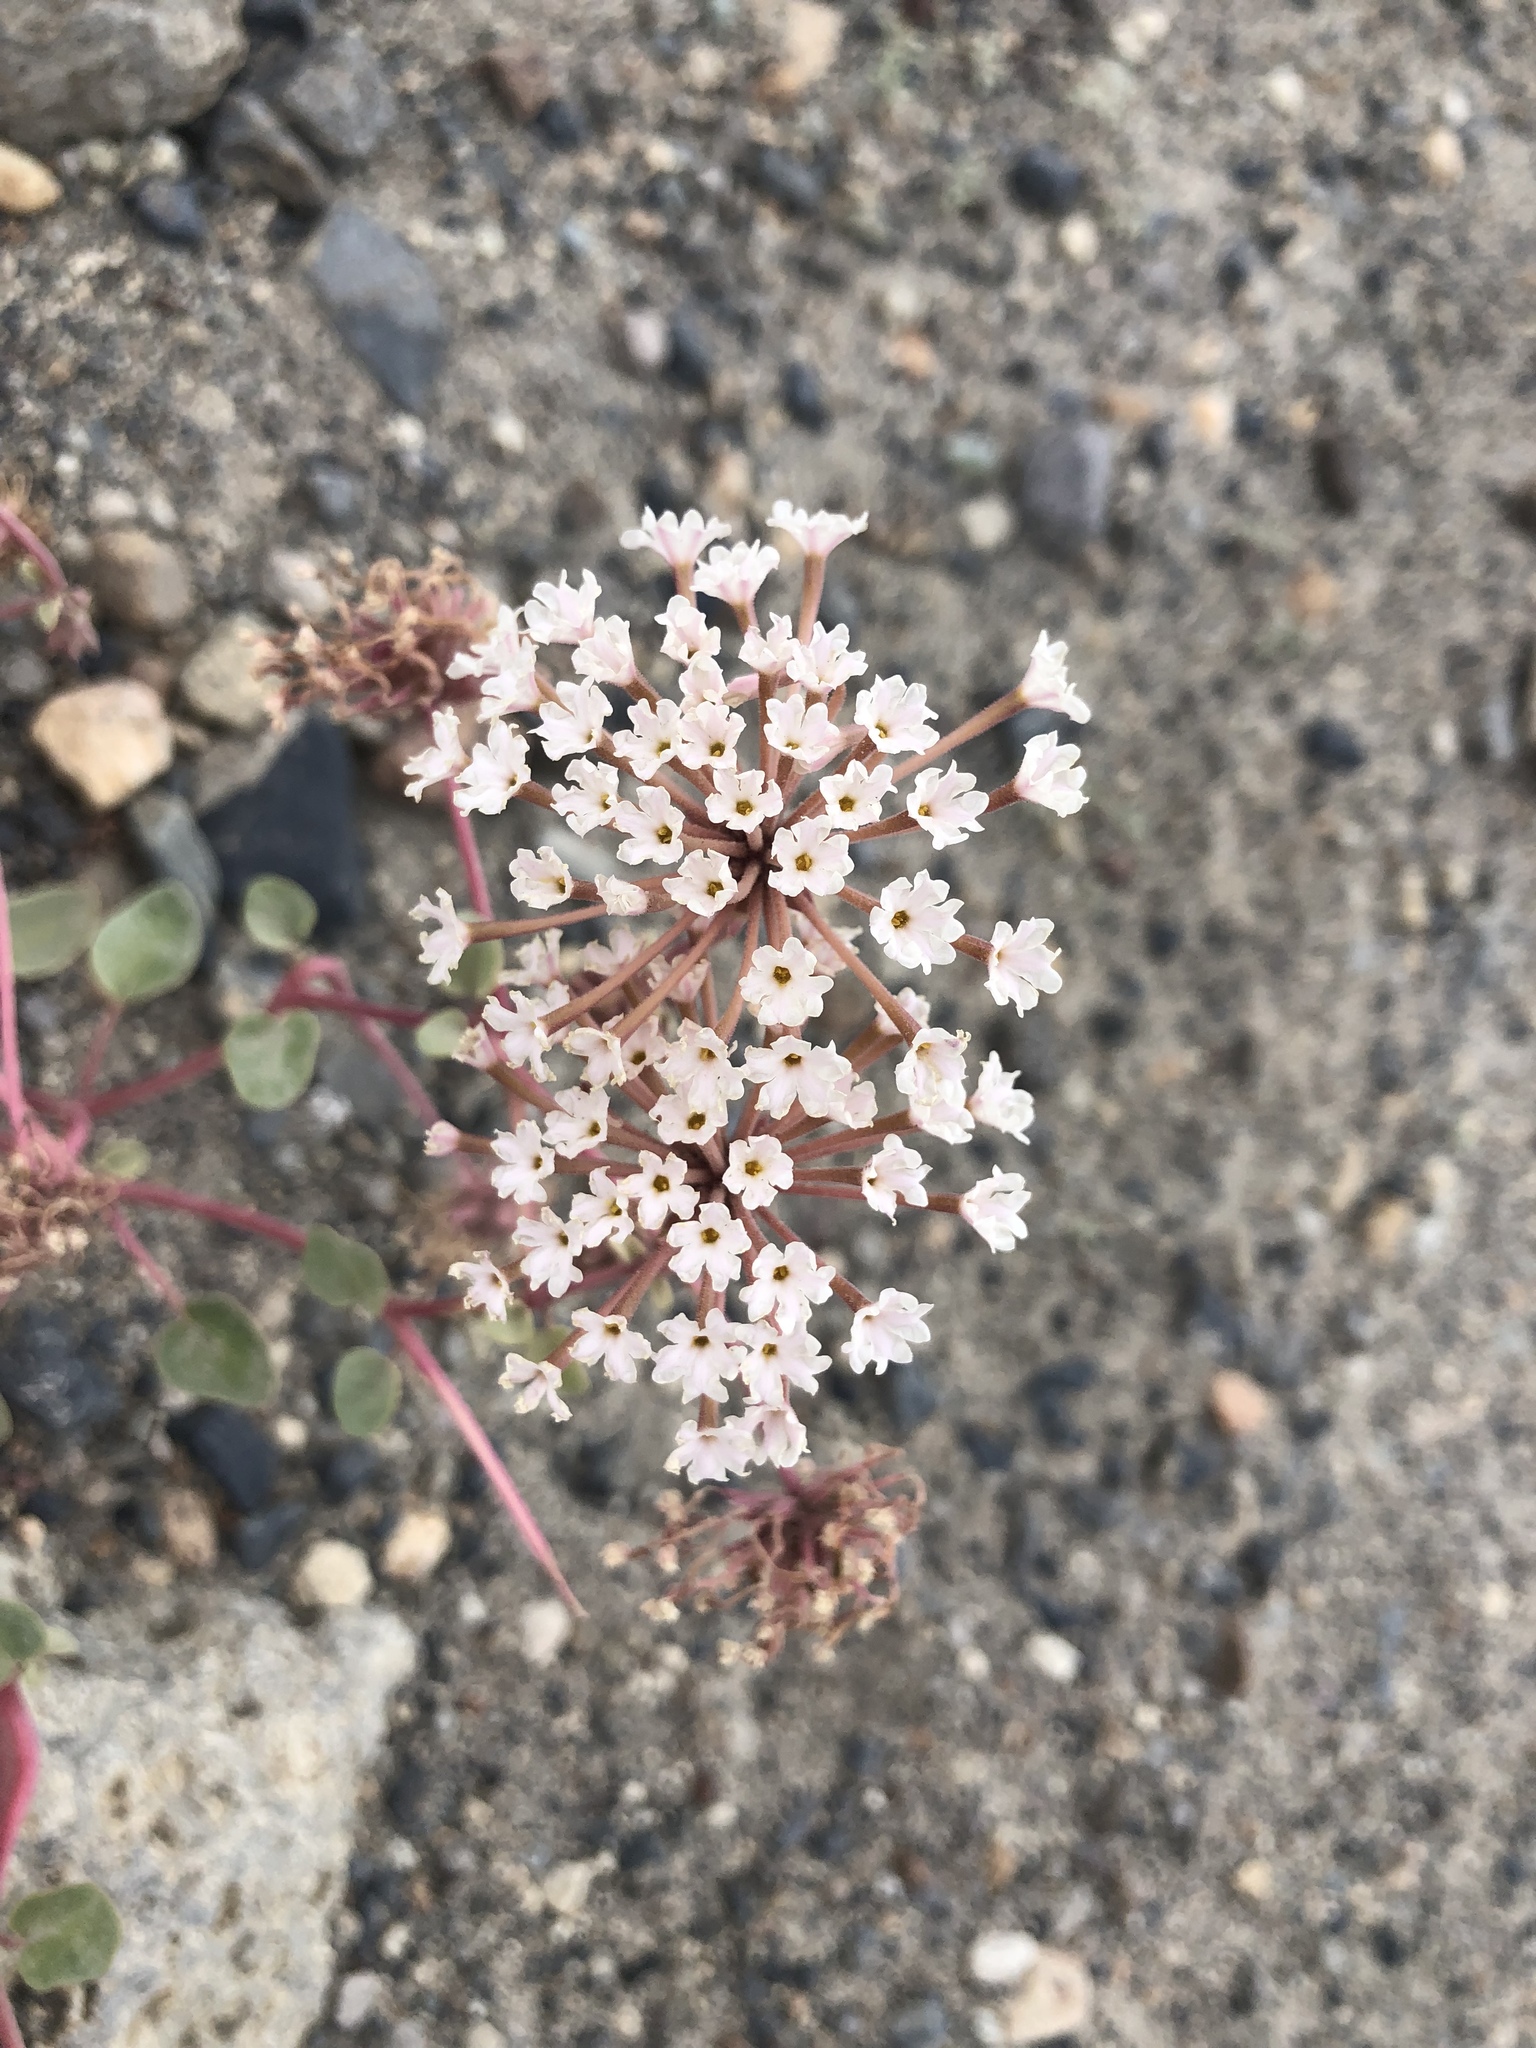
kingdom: Plantae
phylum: Tracheophyta
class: Magnoliopsida
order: Caryophyllales
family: Nyctaginaceae
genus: Abronia
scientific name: Abronia turbinata
